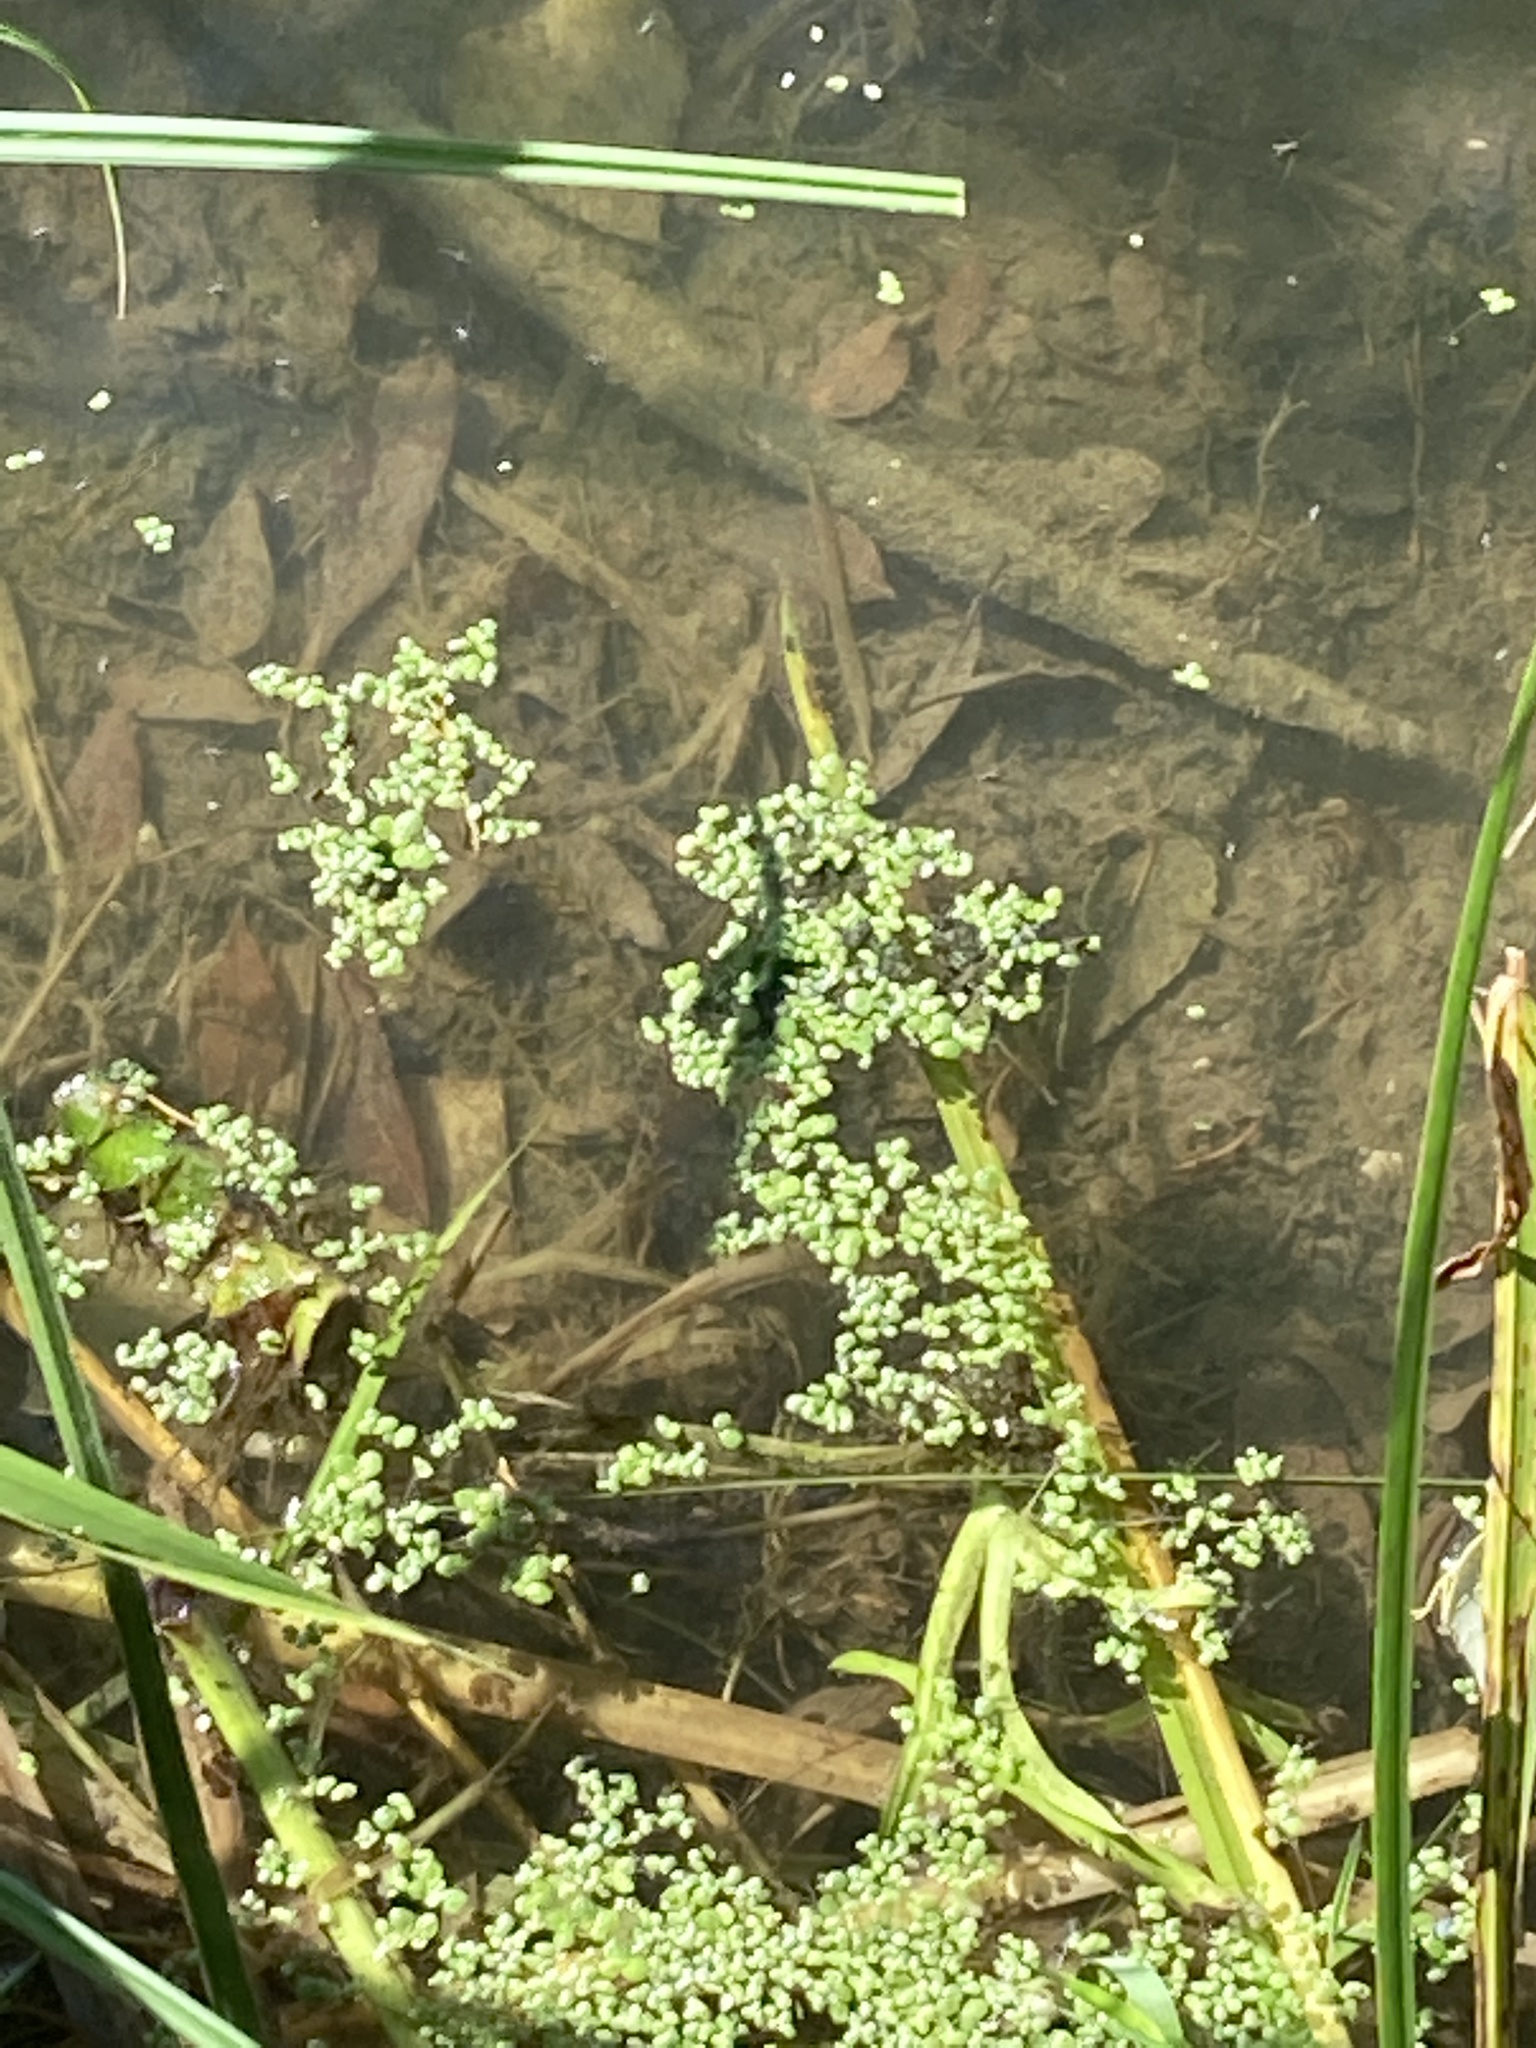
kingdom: Plantae
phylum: Tracheophyta
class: Liliopsida
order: Alismatales
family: Araceae
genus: Lemna
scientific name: Lemna minor
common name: Common duckweed
